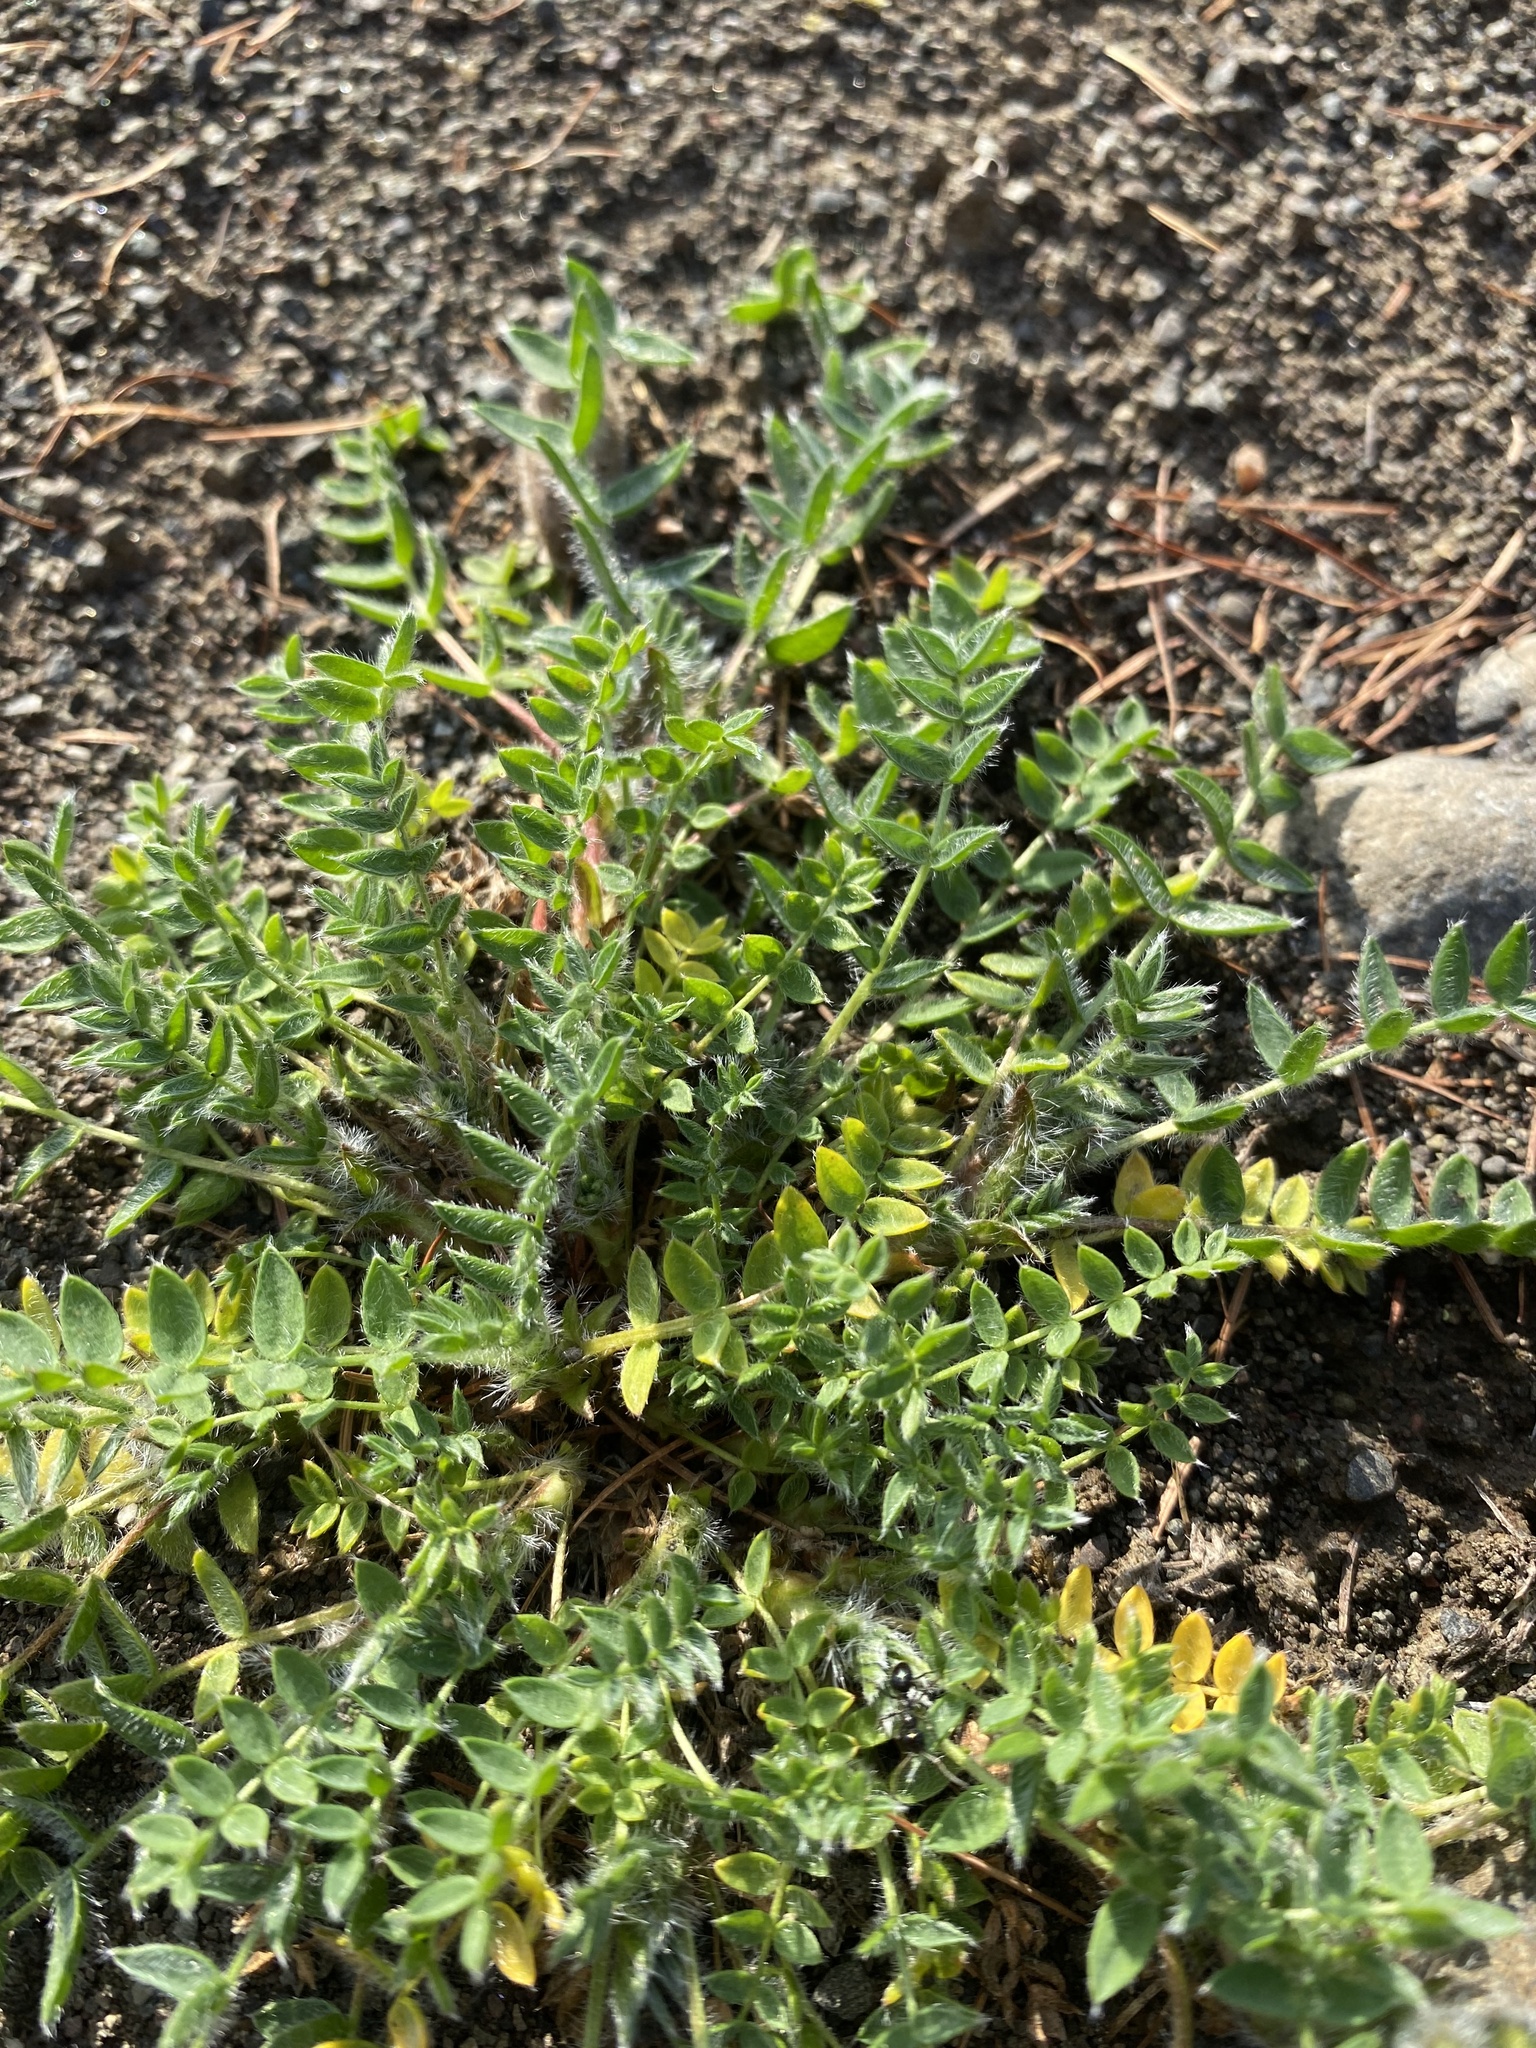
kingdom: Plantae
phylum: Tracheophyta
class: Magnoliopsida
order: Fabales
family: Fabaceae
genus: Oxytropis
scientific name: Oxytropis arctica
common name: Arctic locoweed
